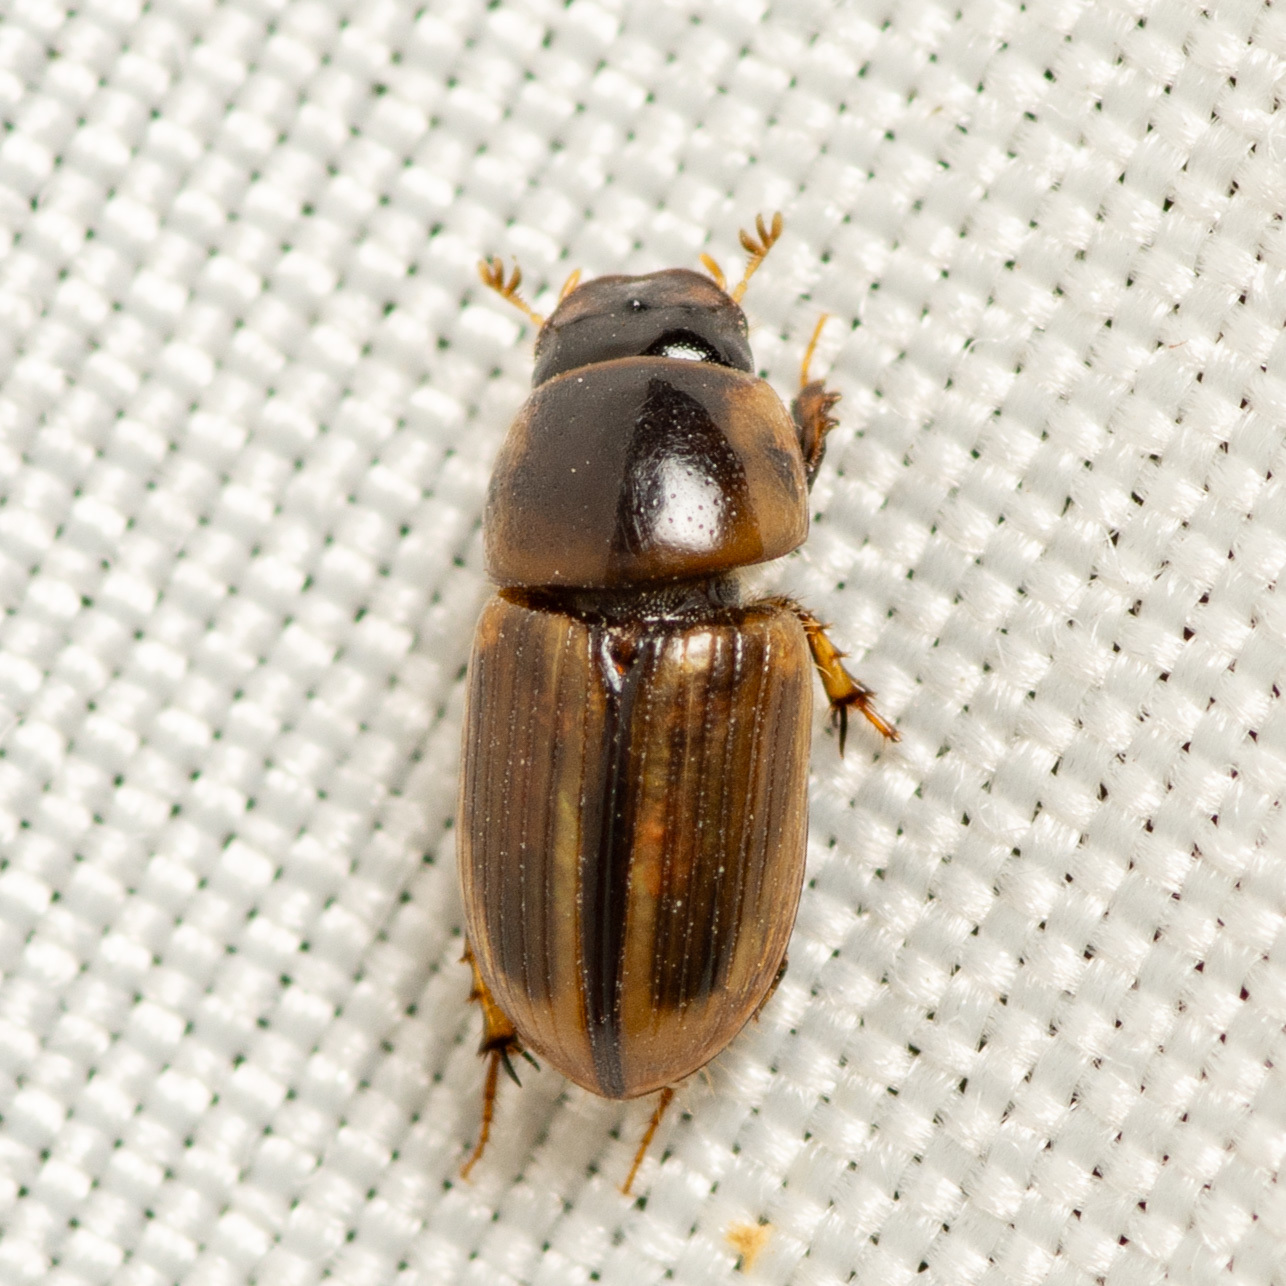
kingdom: Animalia
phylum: Arthropoda
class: Insecta
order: Coleoptera
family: Scarabaeidae
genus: Labarrus
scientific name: Labarrus lividus
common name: Scarab beetle
